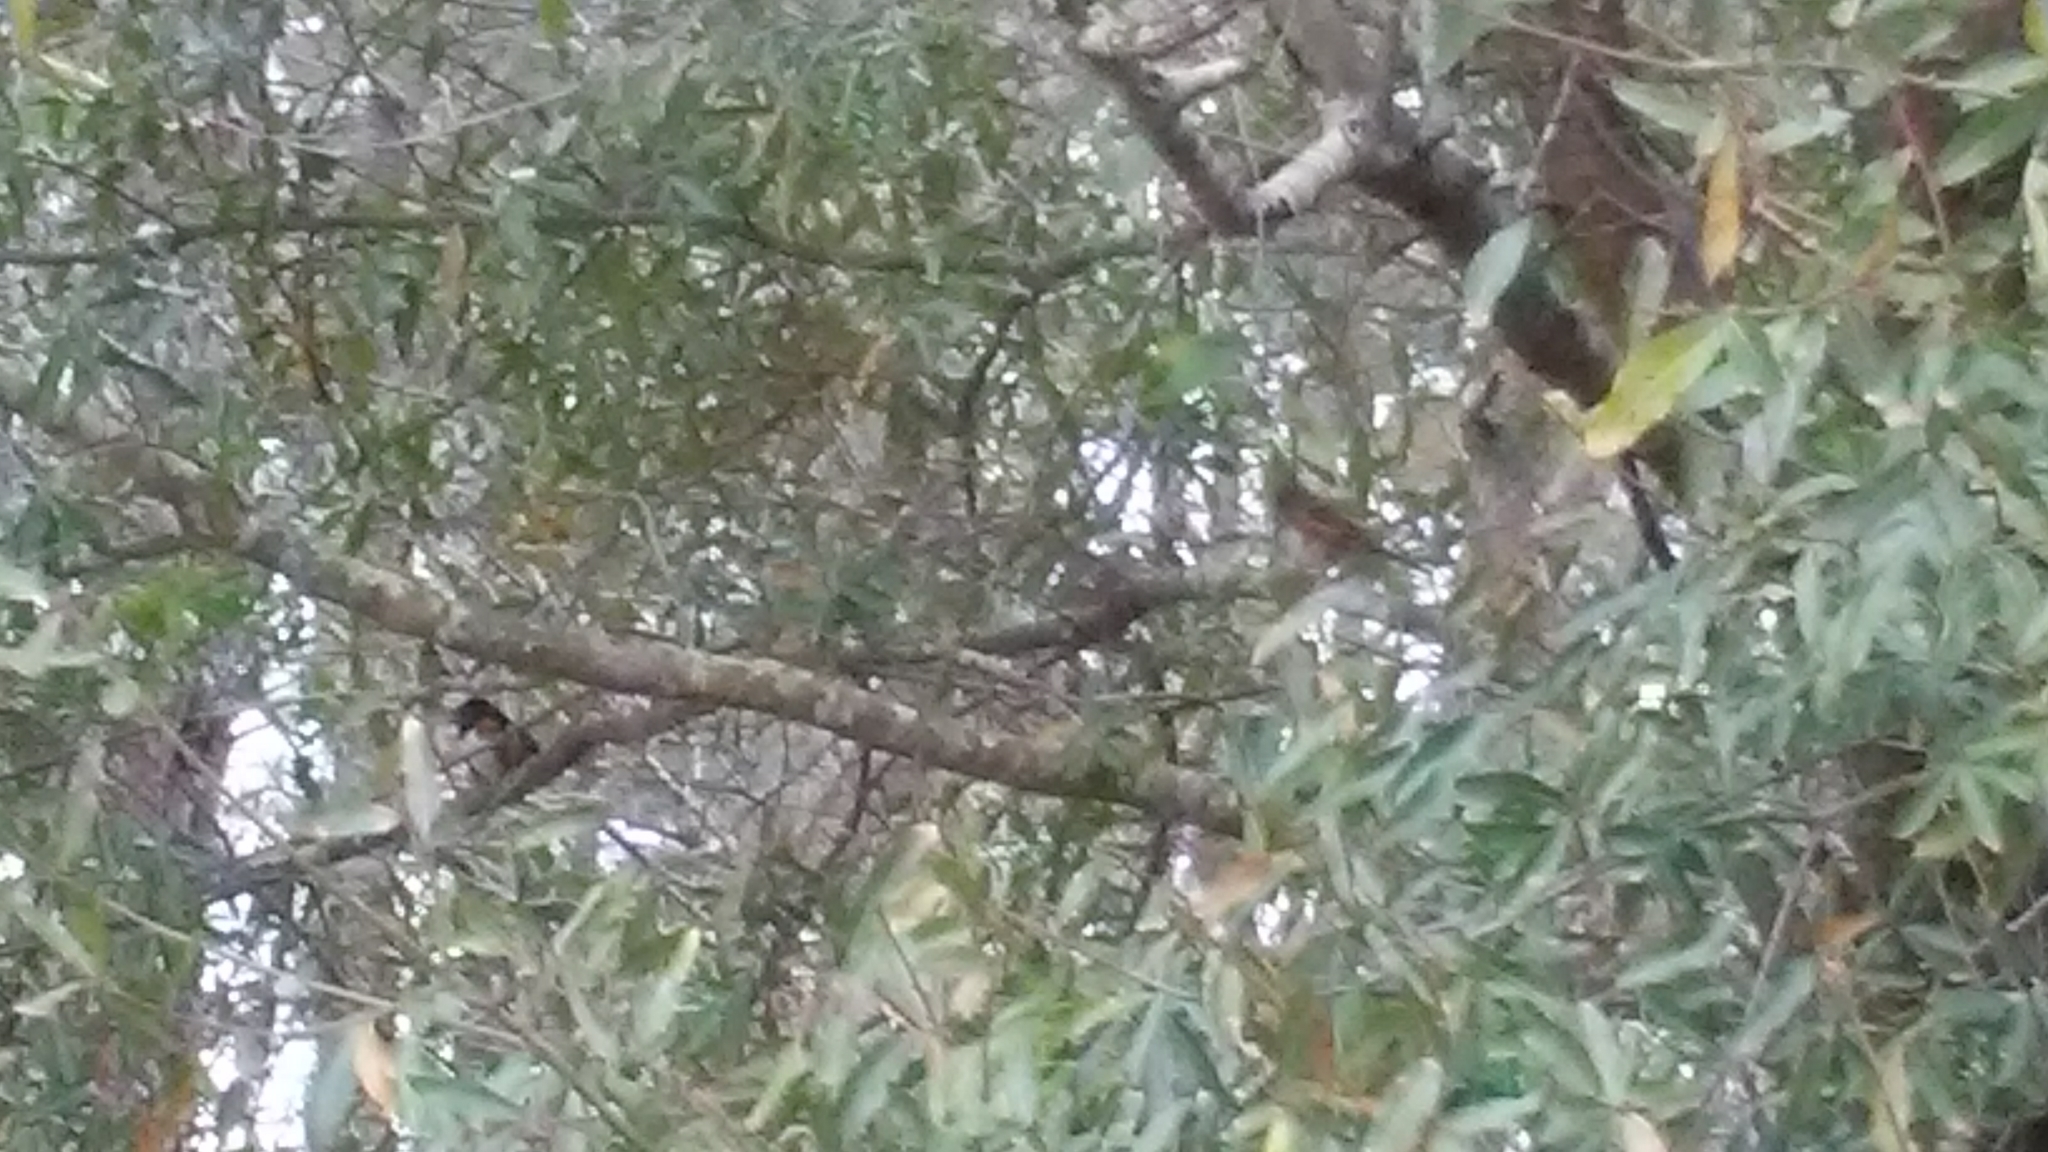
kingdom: Animalia
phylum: Chordata
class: Aves
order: Passeriformes
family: Passerellidae
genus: Pipilo
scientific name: Pipilo erythrophthalmus
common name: Eastern towhee
